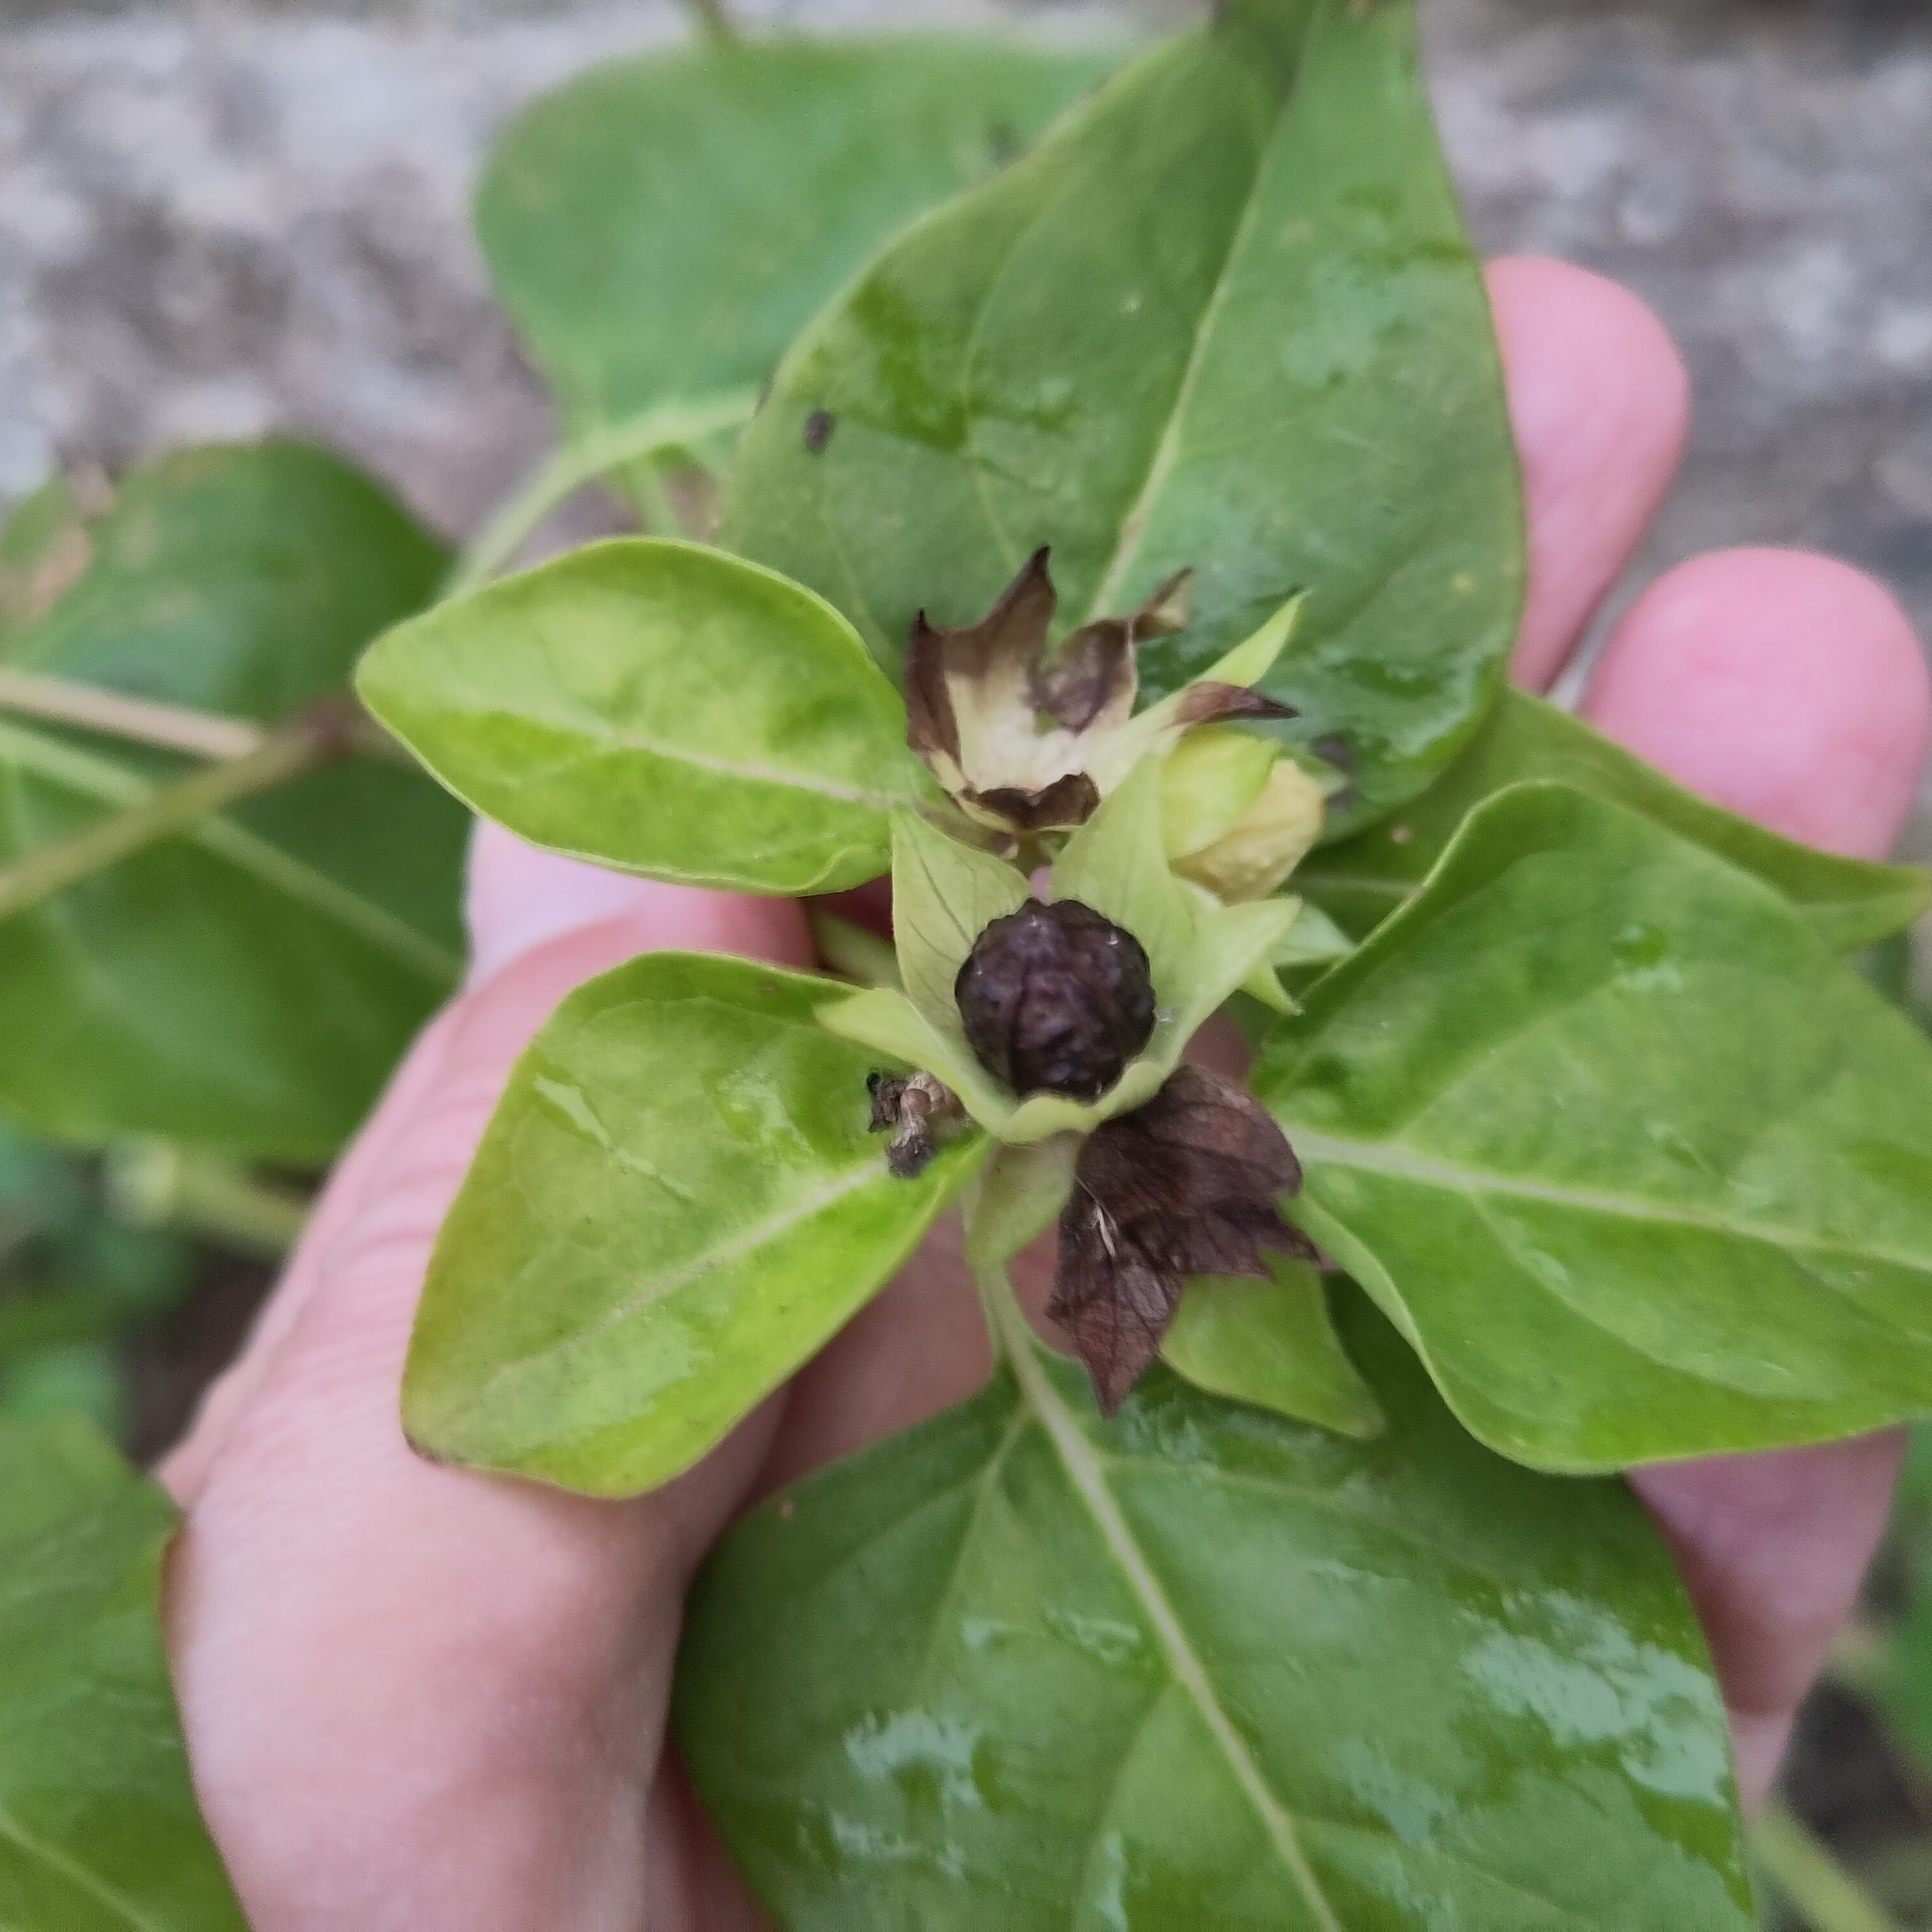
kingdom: Plantae
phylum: Tracheophyta
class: Magnoliopsida
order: Caryophyllales
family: Nyctaginaceae
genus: Mirabilis
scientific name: Mirabilis jalapa
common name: Marvel-of-peru
